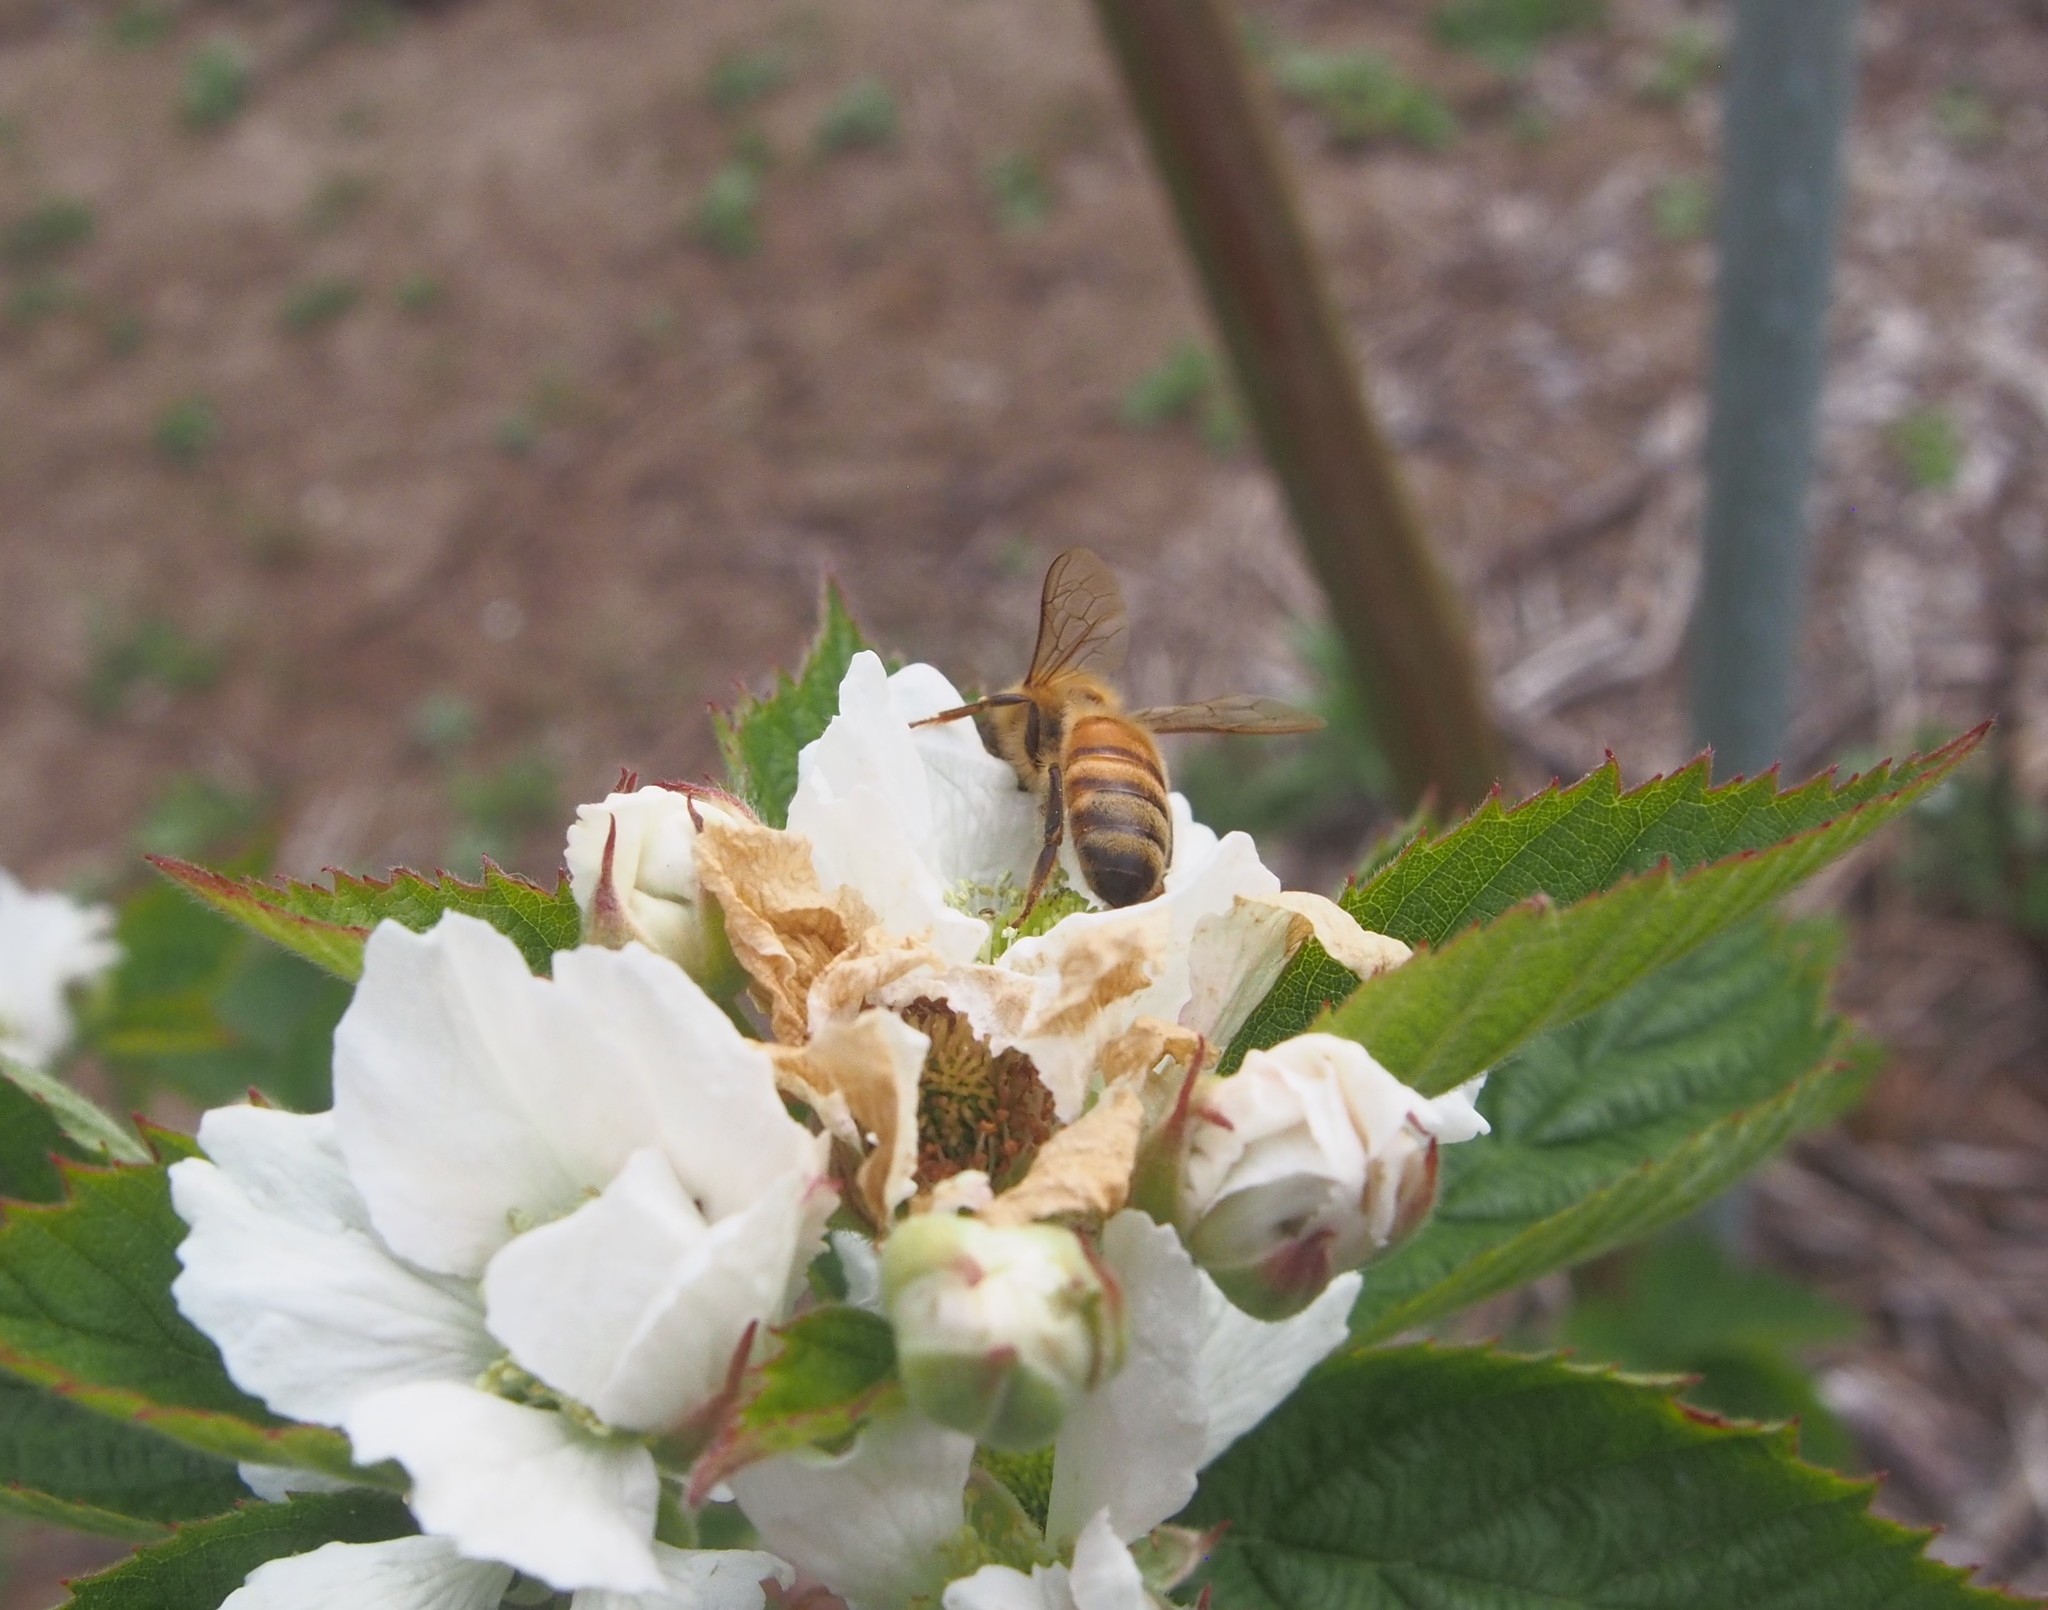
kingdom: Animalia
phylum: Arthropoda
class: Insecta
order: Hymenoptera
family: Apidae
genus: Apis
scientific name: Apis mellifera
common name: Honey bee
